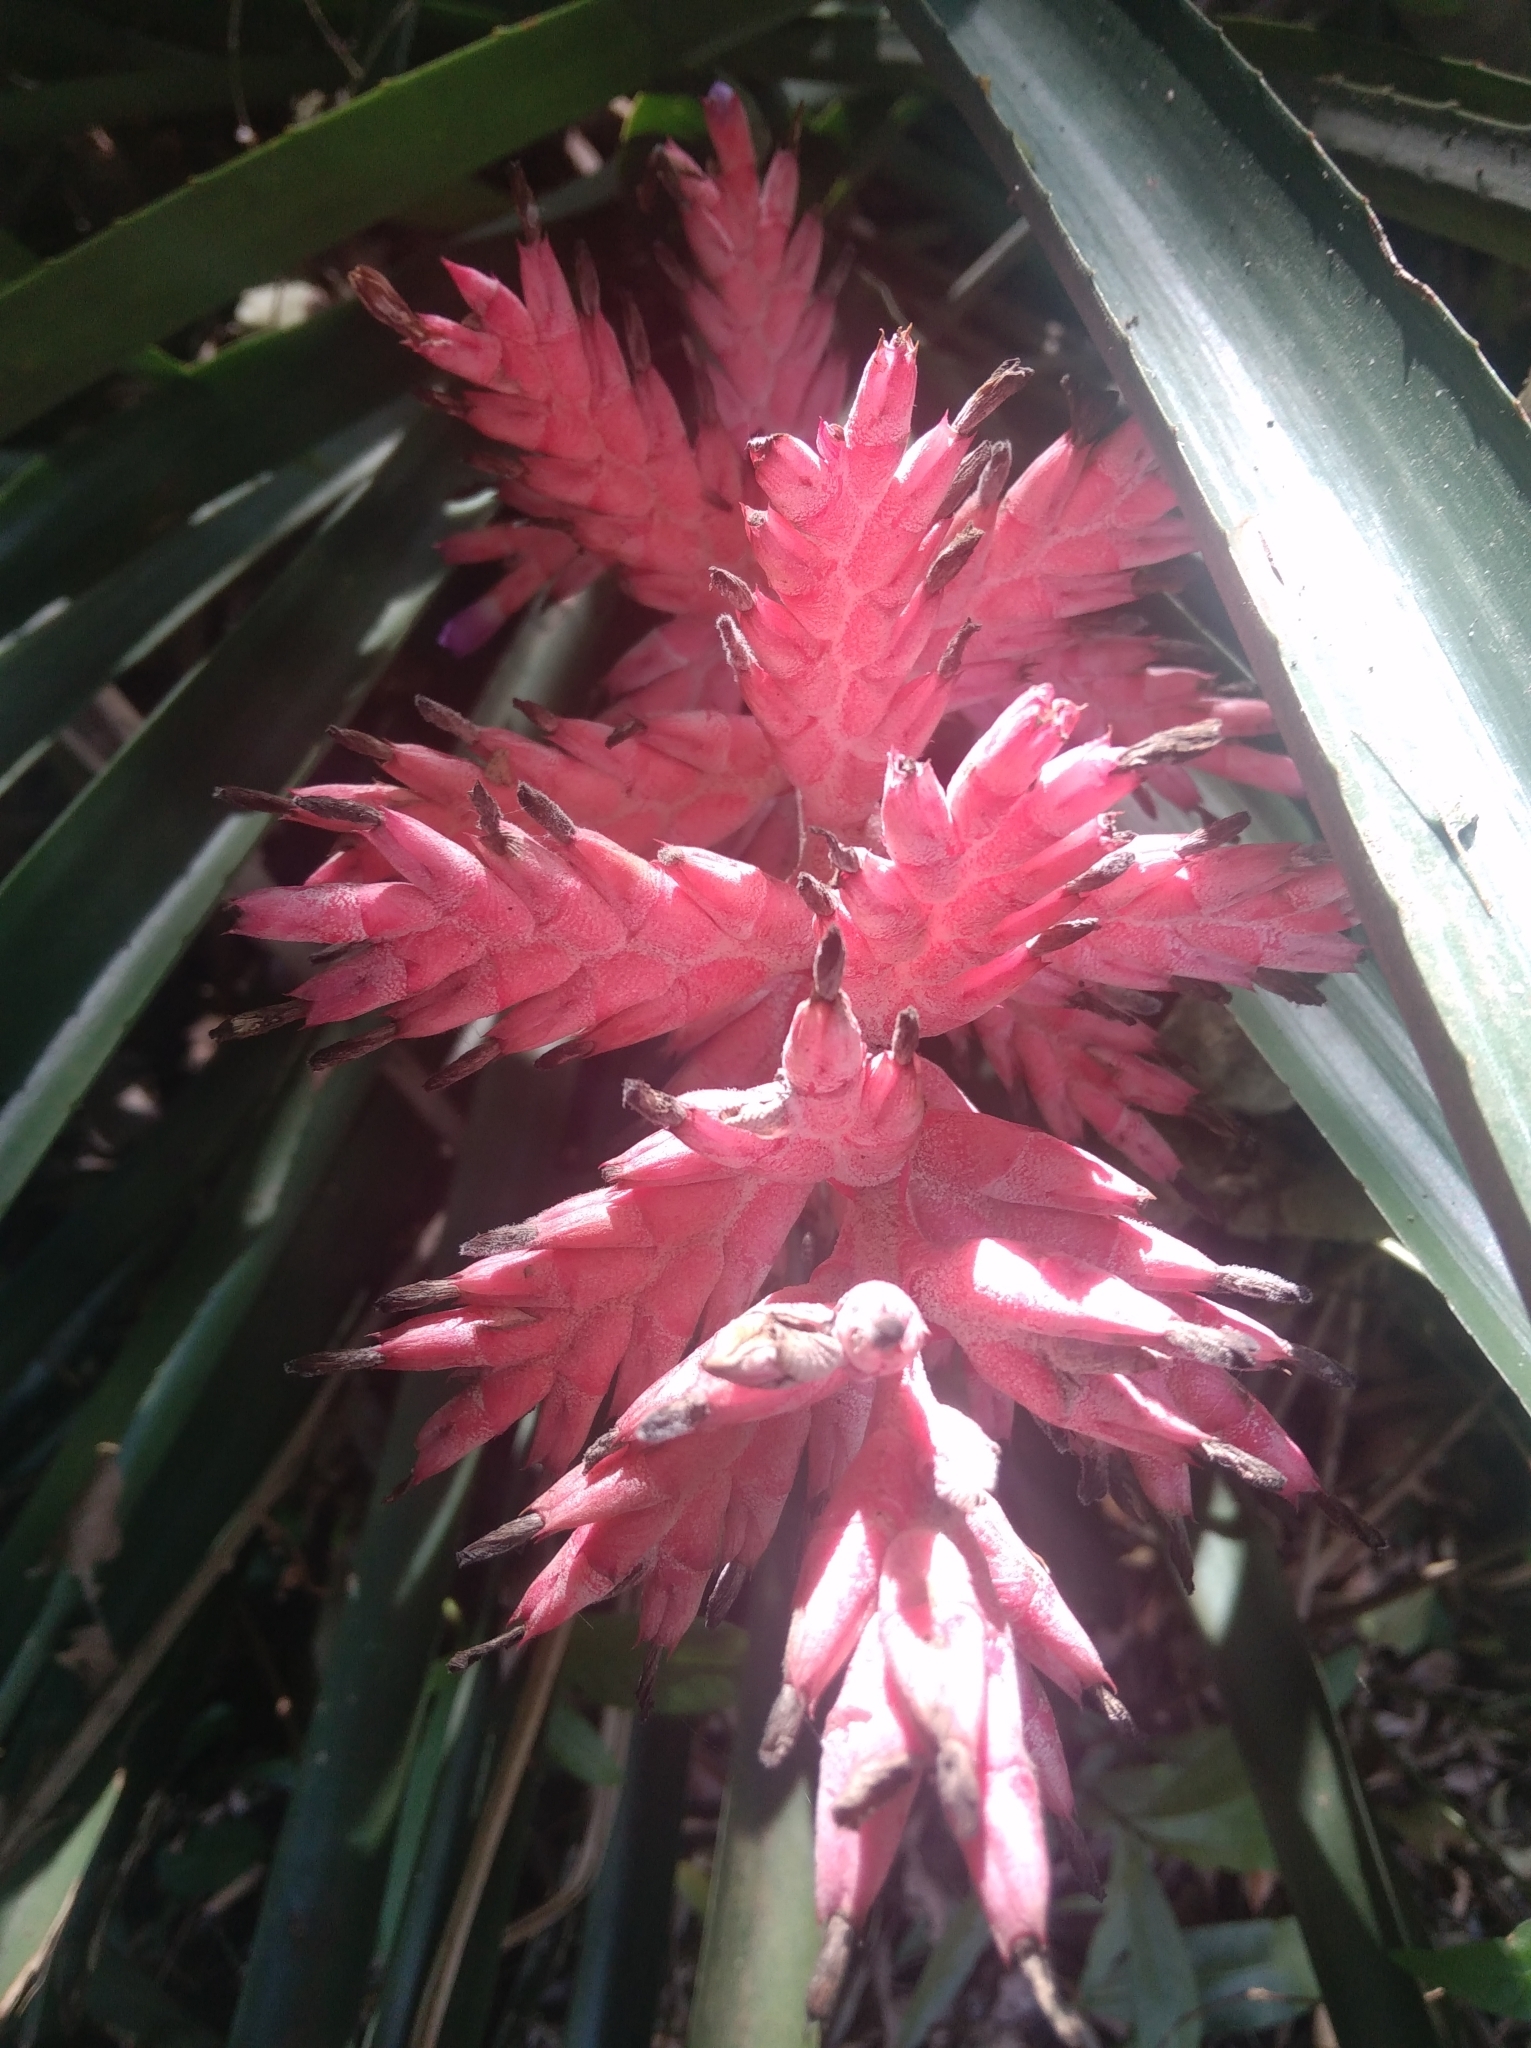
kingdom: Plantae
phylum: Tracheophyta
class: Liliopsida
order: Poales
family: Bromeliaceae
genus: Aechmea
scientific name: Aechmea distichantha
